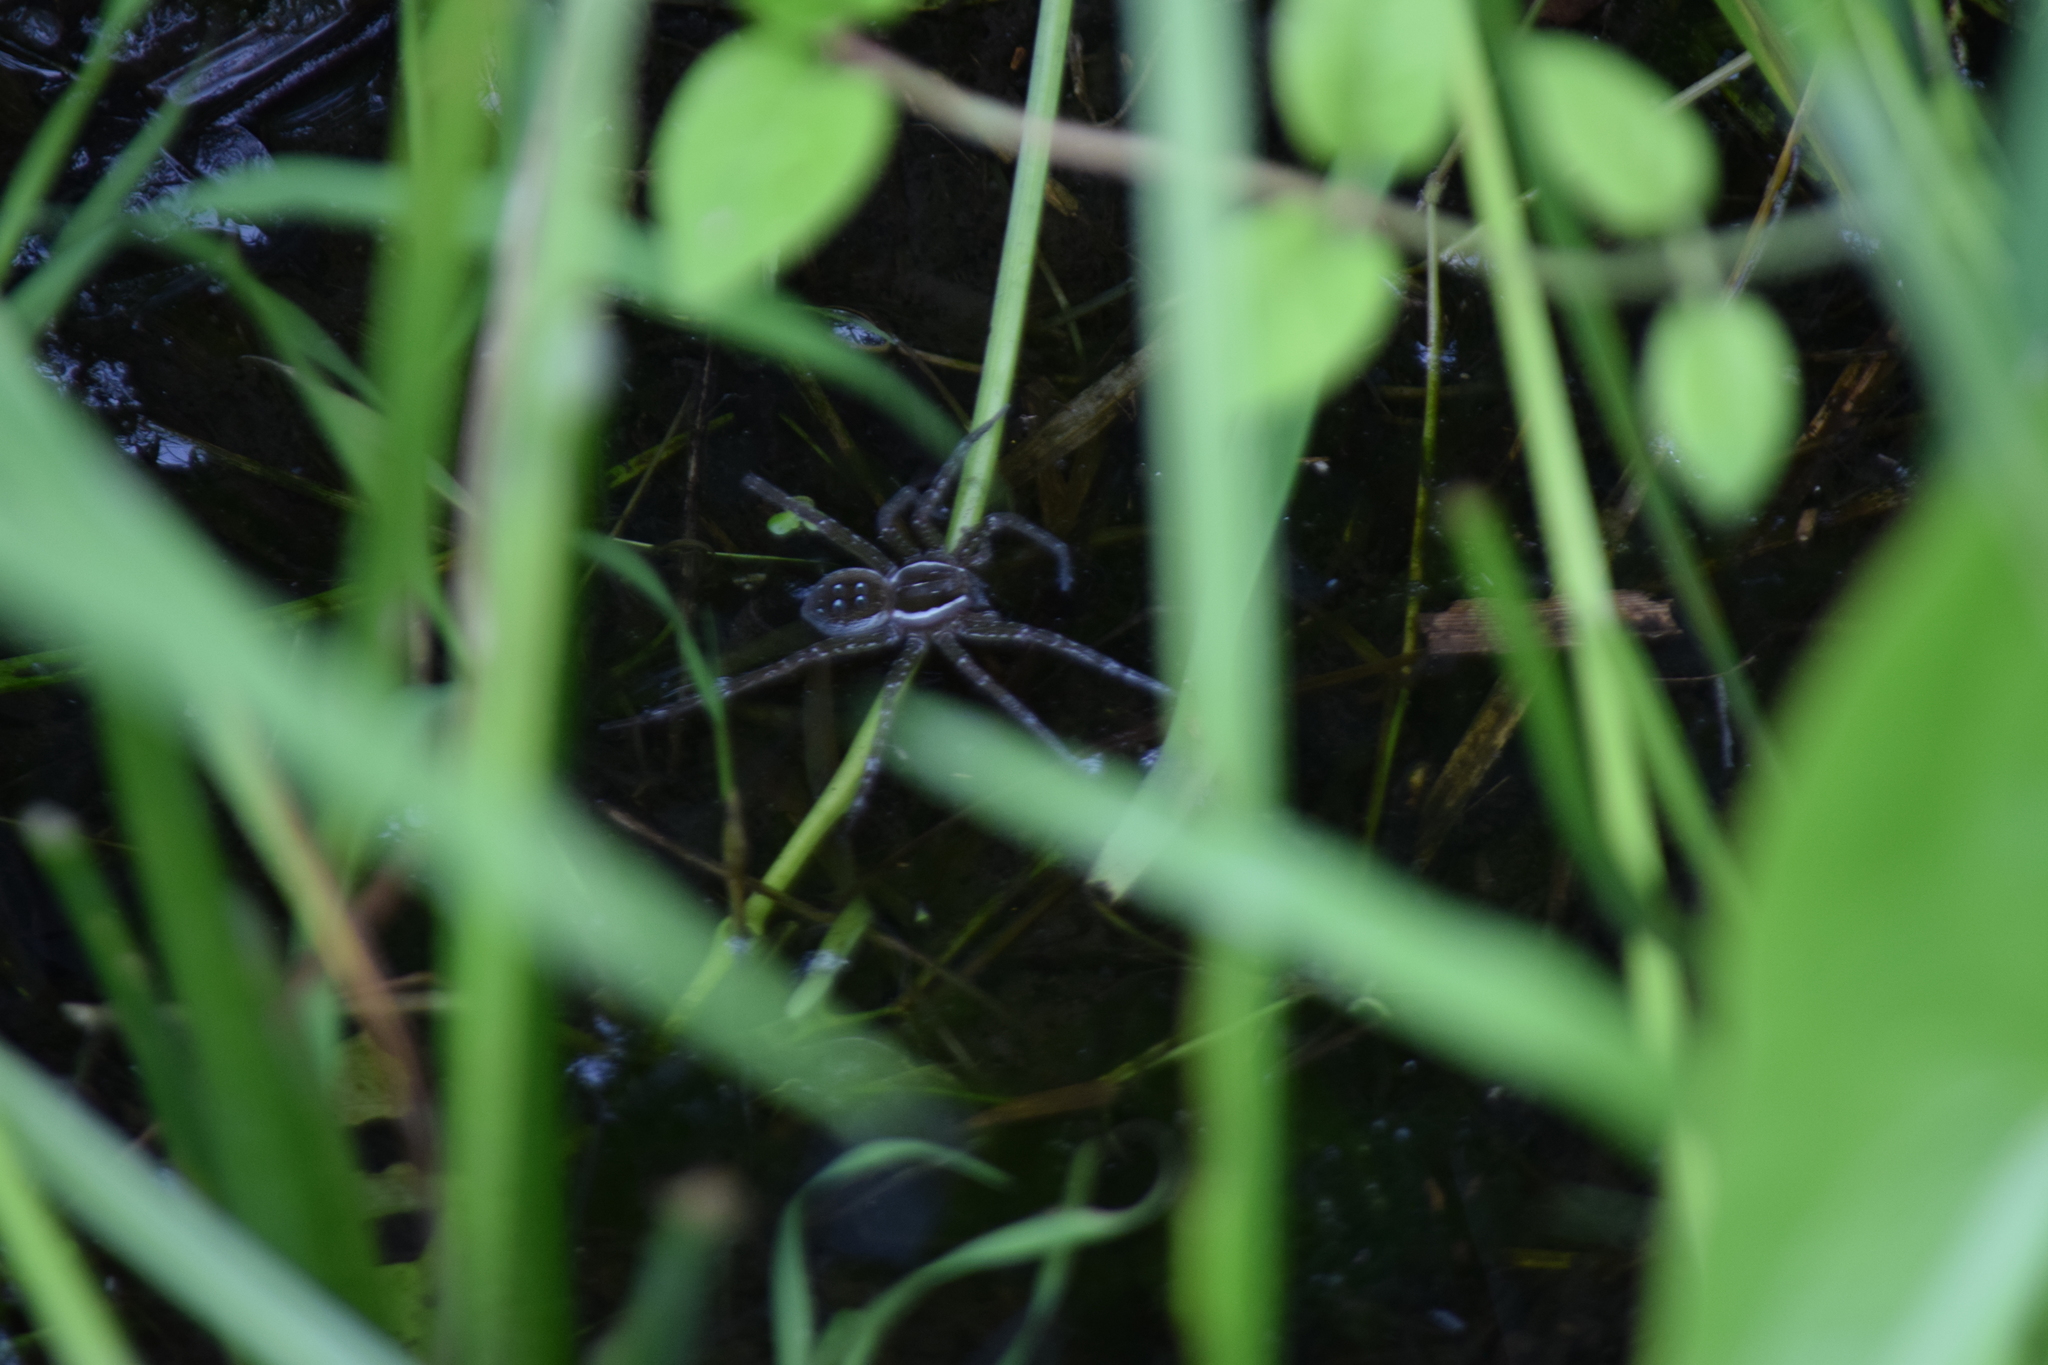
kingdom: Animalia
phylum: Arthropoda
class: Arachnida
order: Araneae
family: Pisauridae
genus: Dolomedes
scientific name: Dolomedes triton
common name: Six-spotted fishing spider
